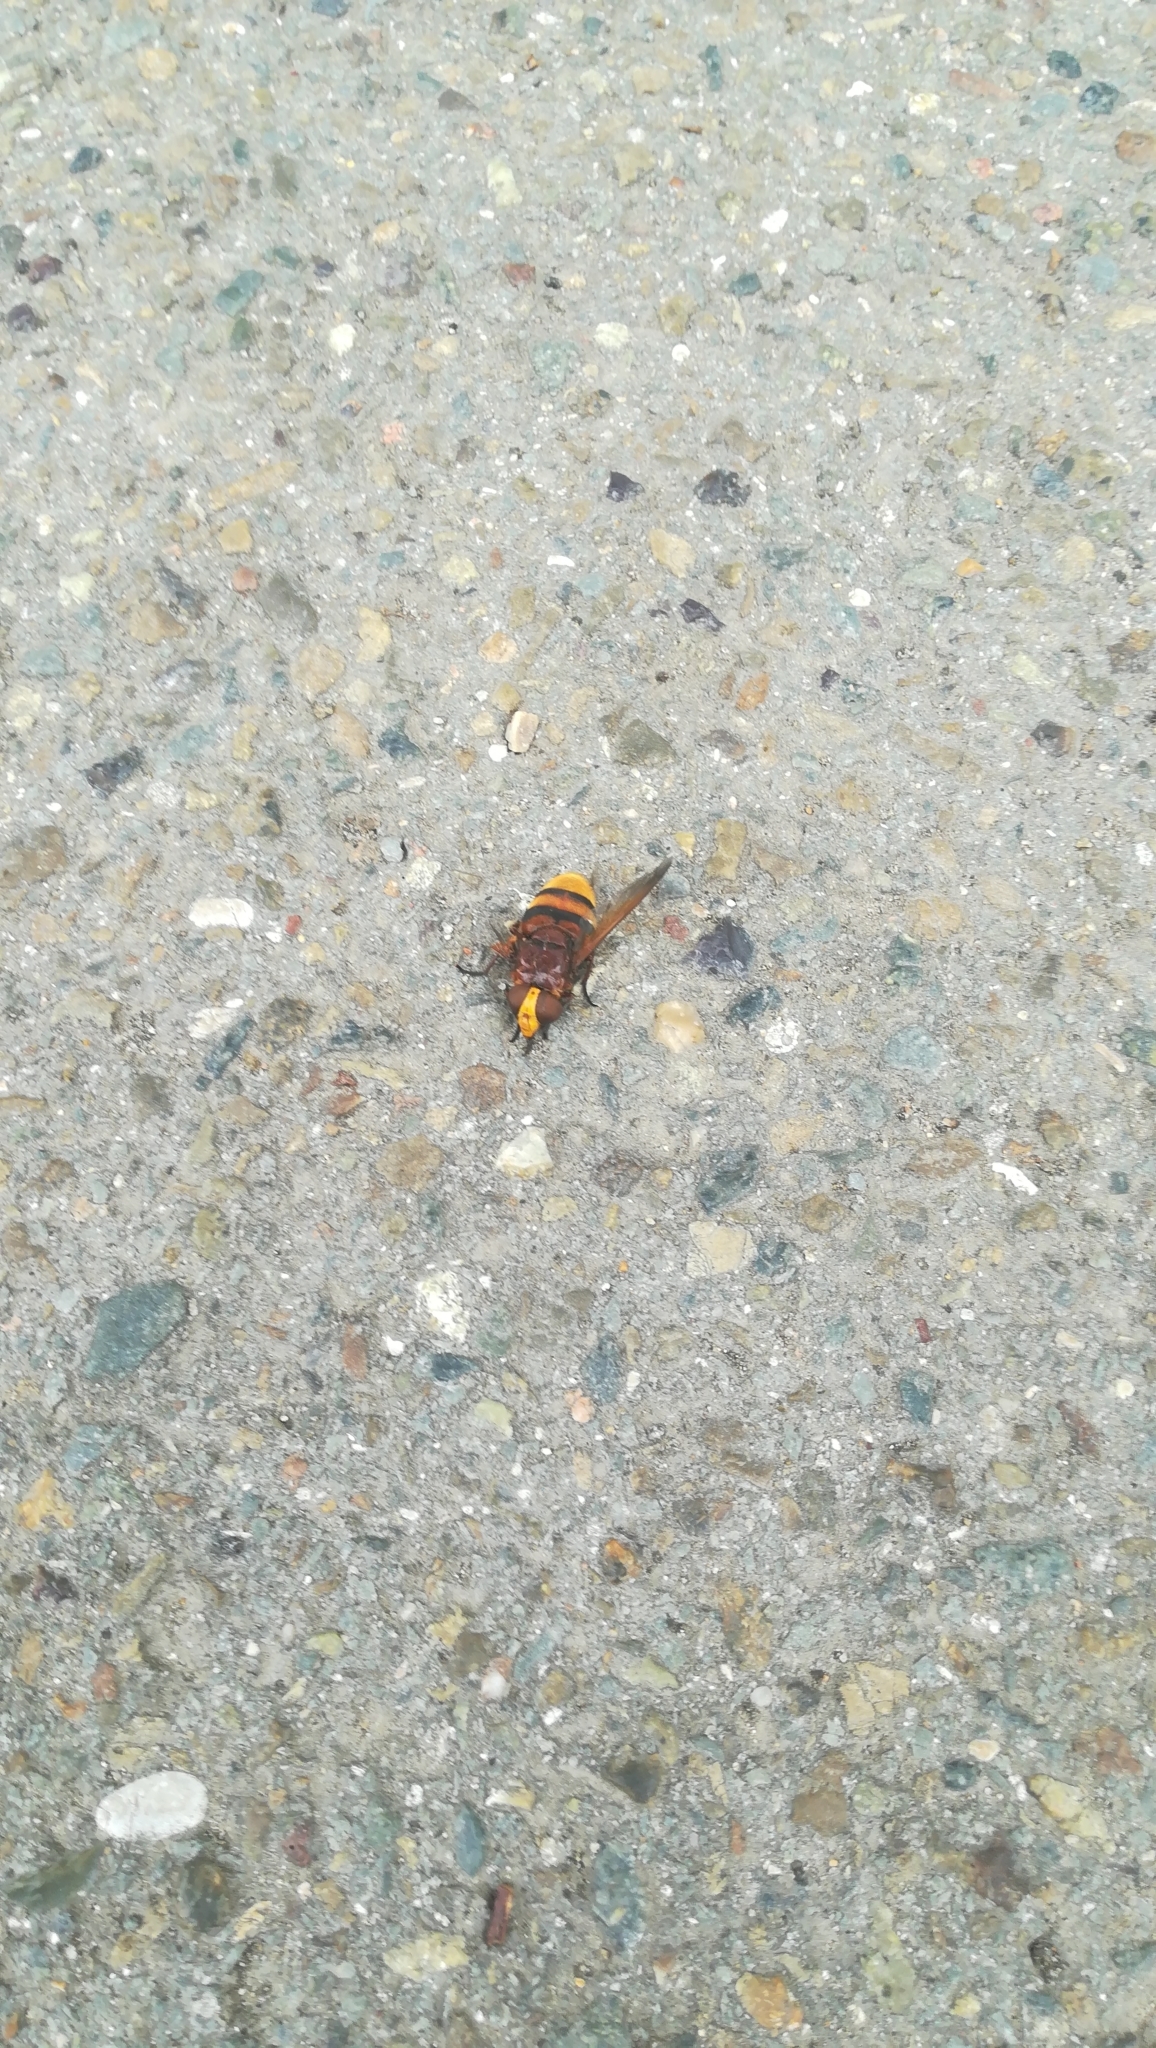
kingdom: Animalia
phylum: Arthropoda
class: Insecta
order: Diptera
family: Syrphidae
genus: Volucella
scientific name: Volucella zonaria
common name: Hornet hoverfly
